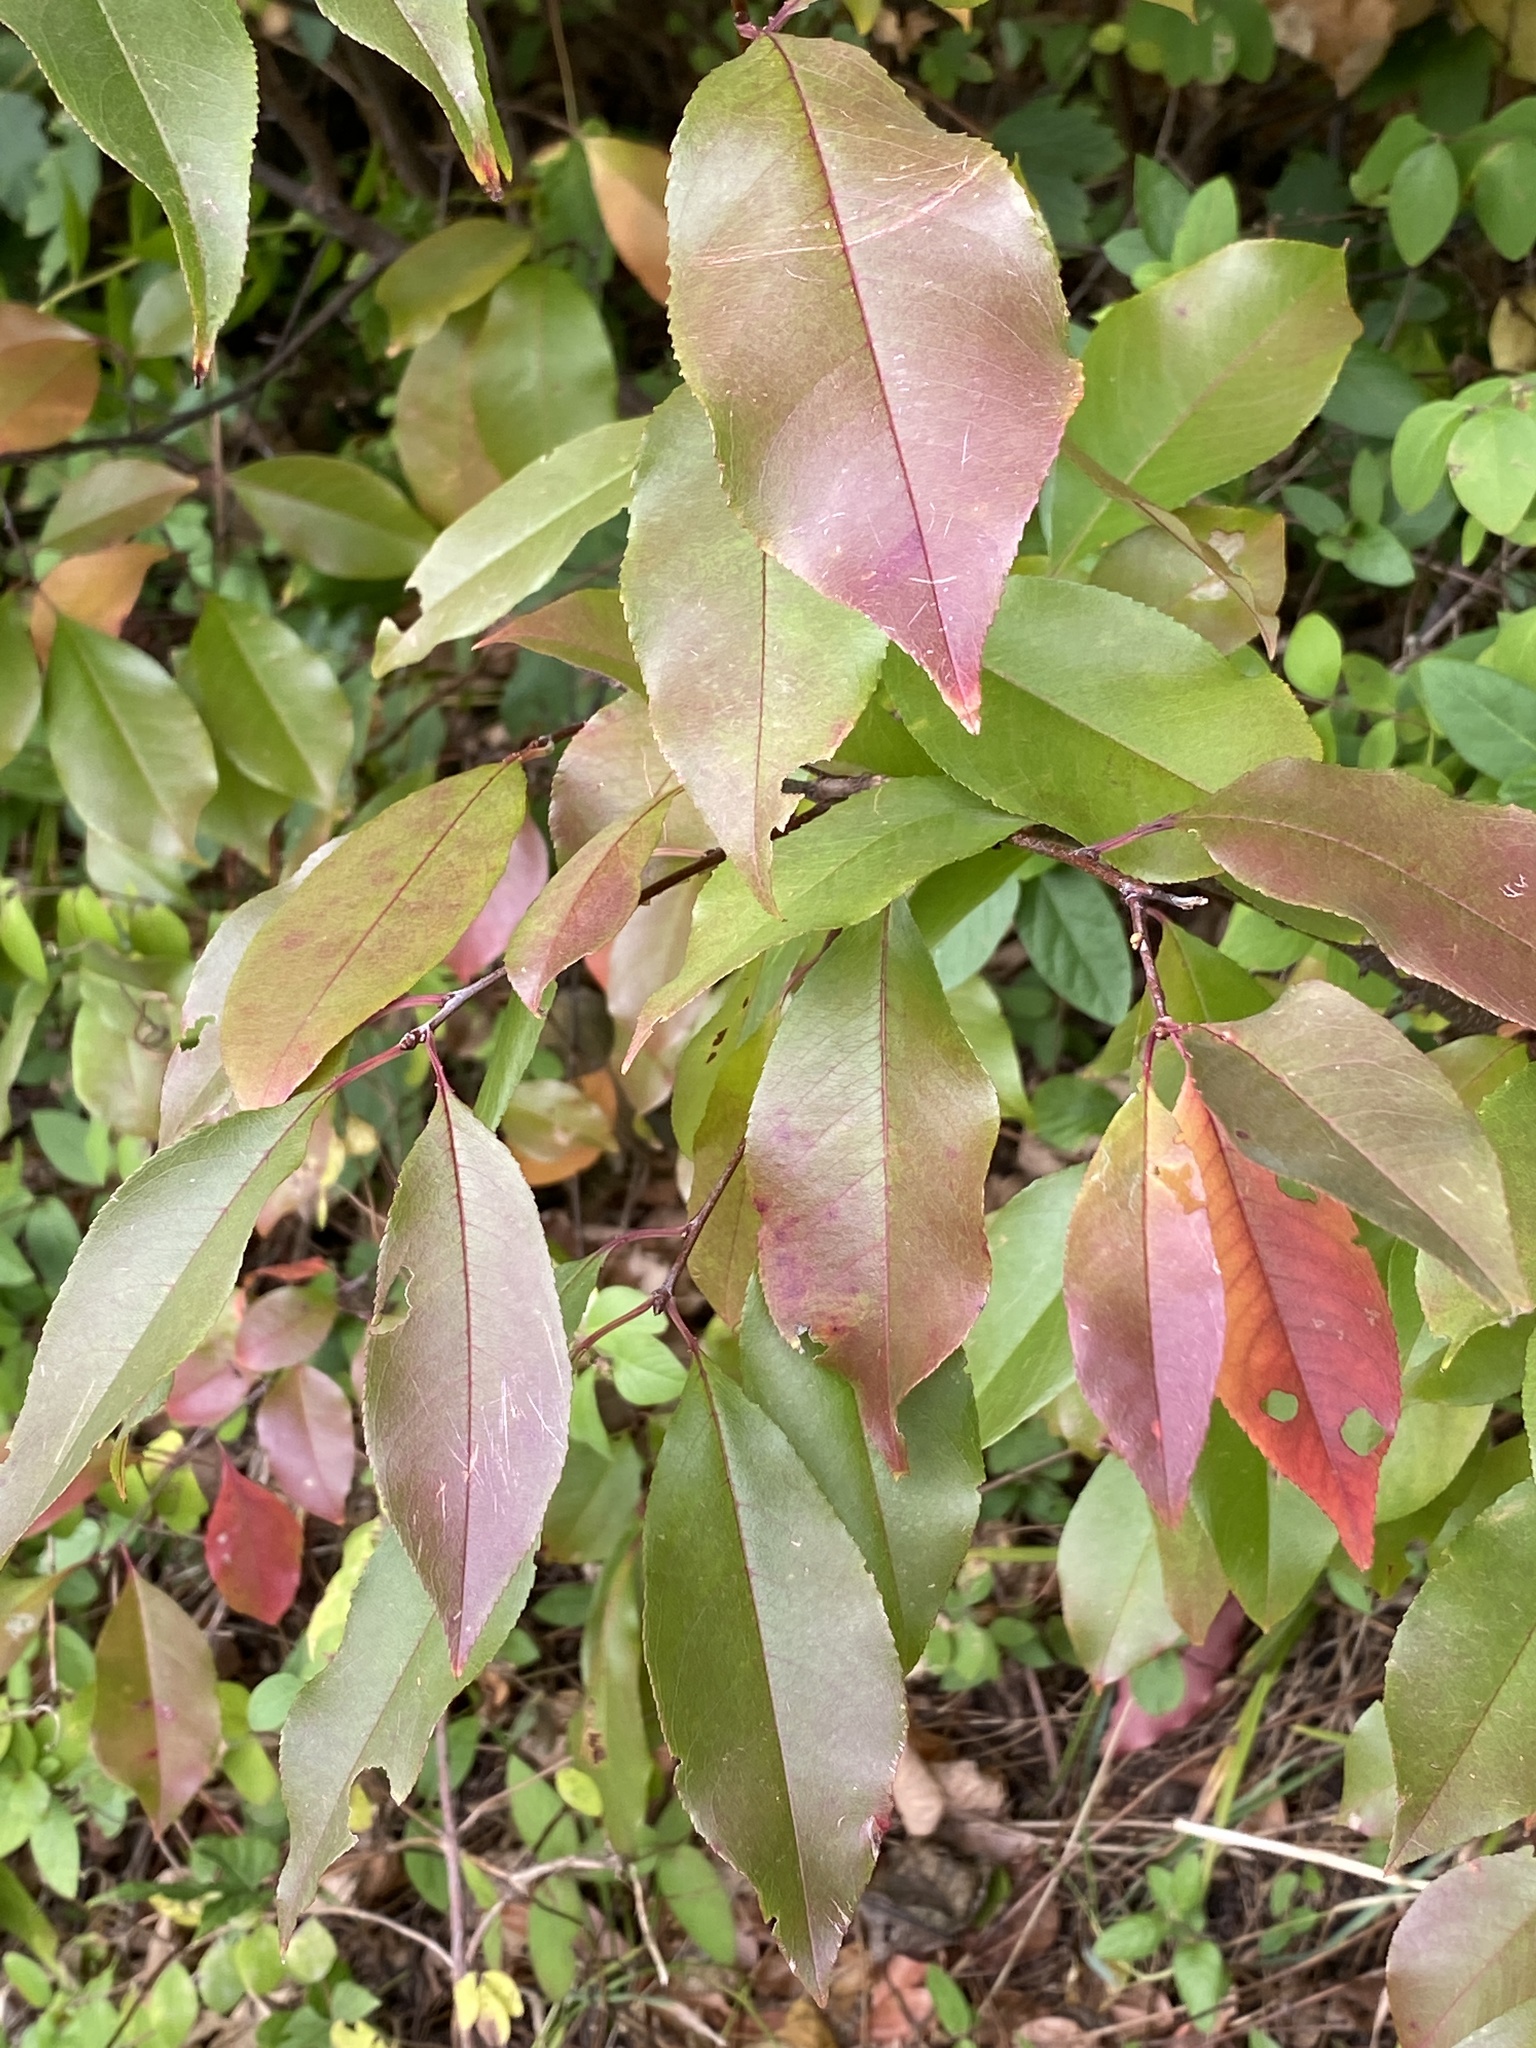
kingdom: Plantae
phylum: Tracheophyta
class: Magnoliopsida
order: Rosales
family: Rosaceae
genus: Prunus
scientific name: Prunus serotina
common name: Black cherry
